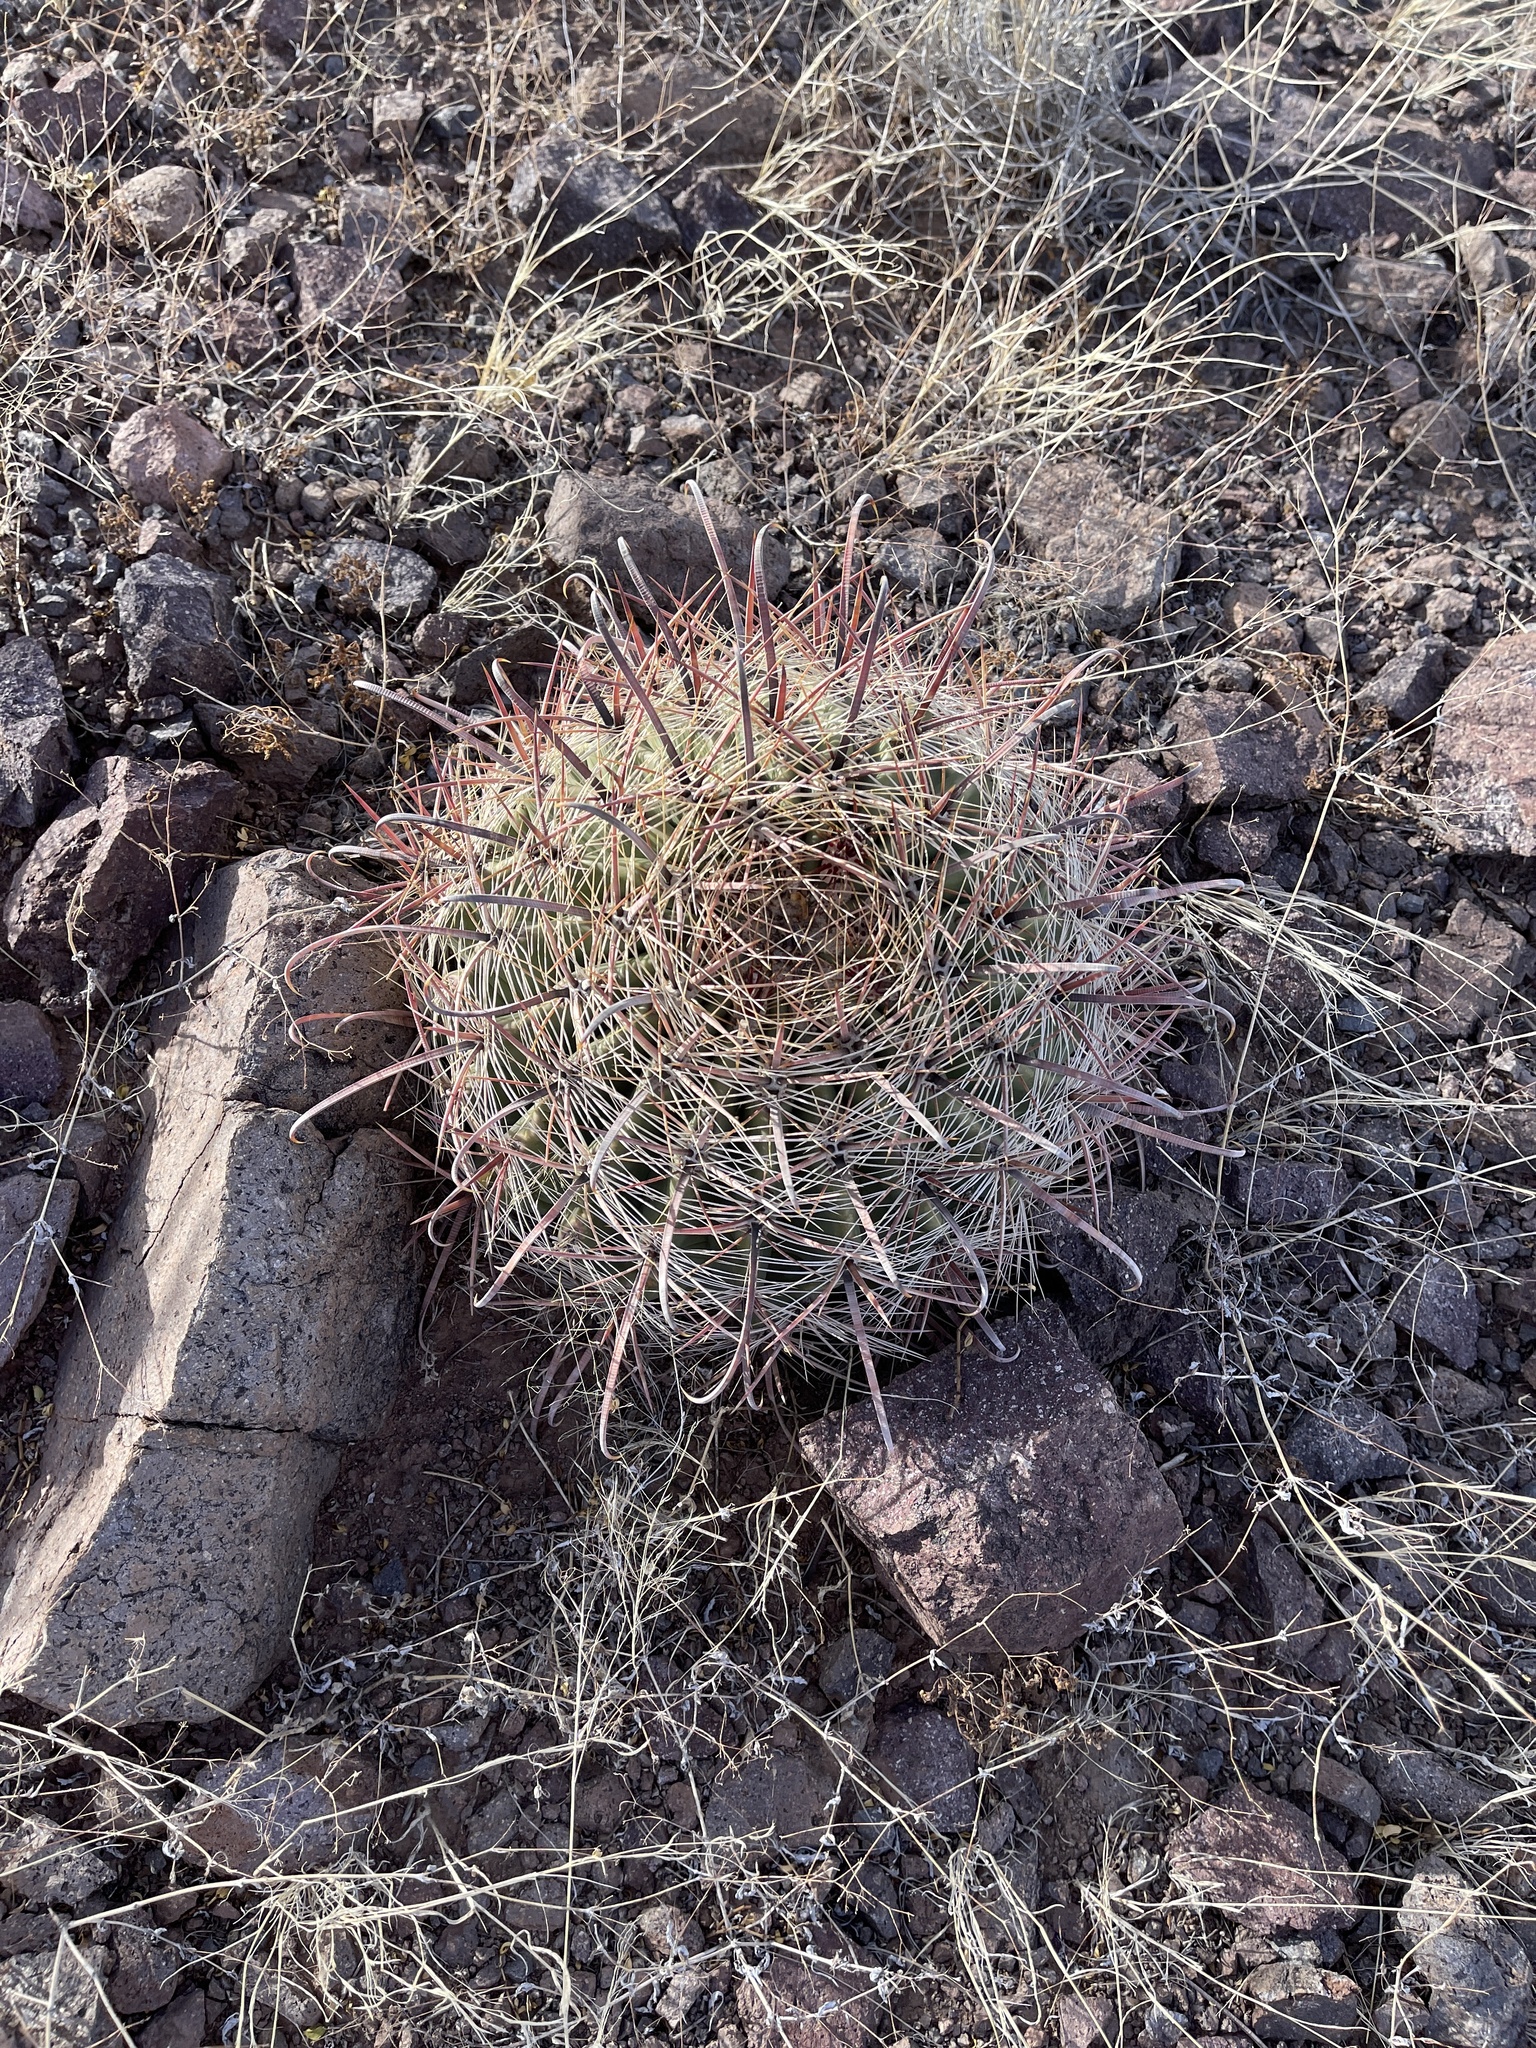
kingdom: Plantae
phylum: Tracheophyta
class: Magnoliopsida
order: Caryophyllales
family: Cactaceae
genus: Ferocactus
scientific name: Ferocactus wislizeni
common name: Candy barrel cactus
